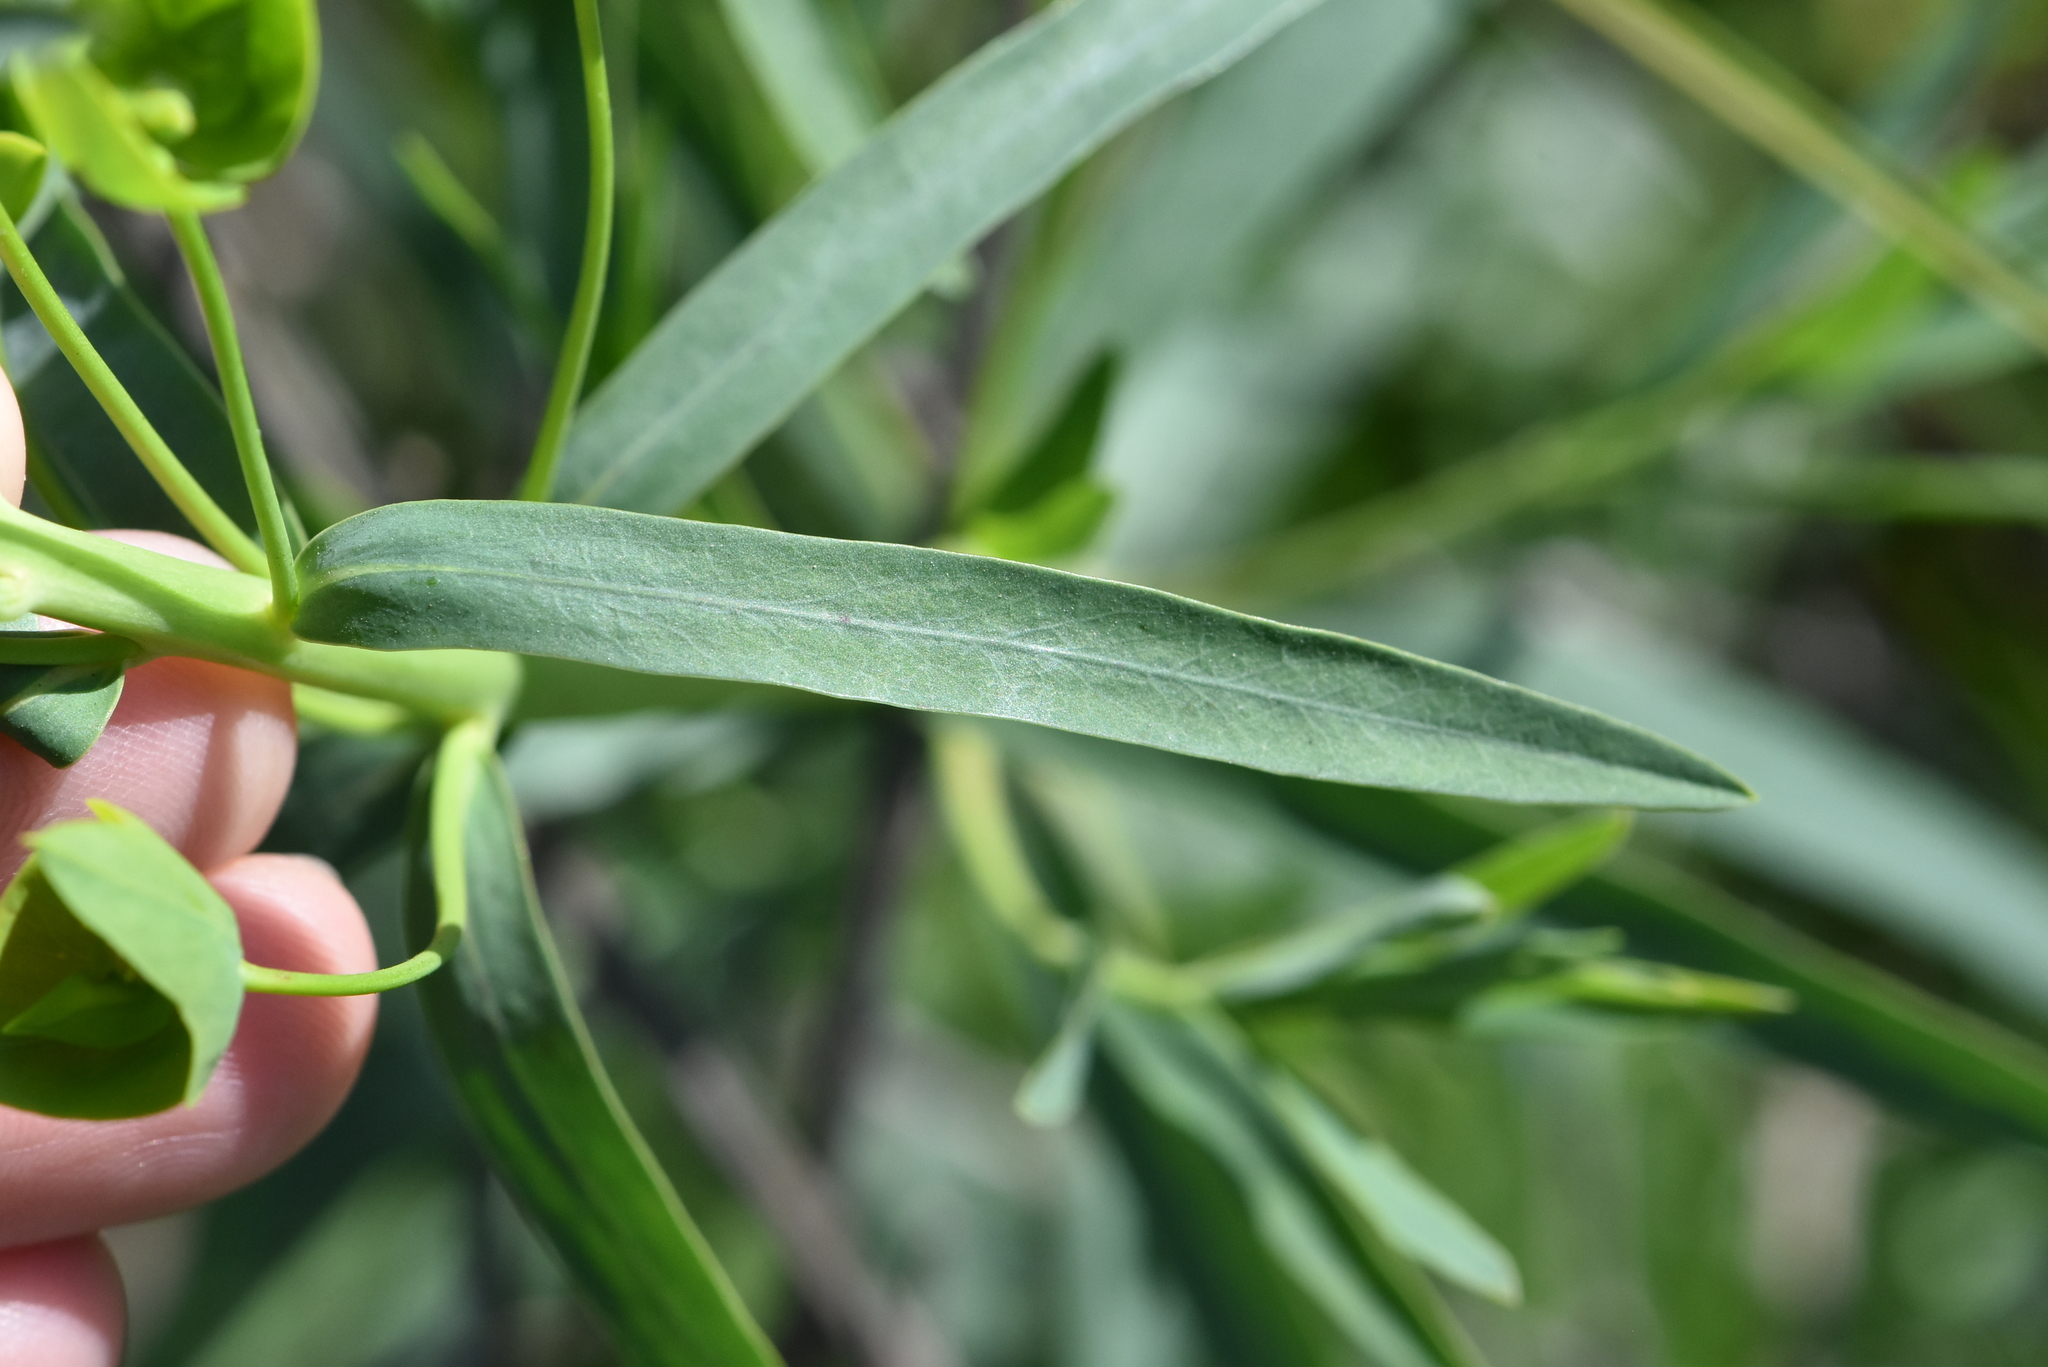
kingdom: Plantae
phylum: Tracheophyta
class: Magnoliopsida
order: Malpighiales
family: Euphorbiaceae
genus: Euphorbia
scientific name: Euphorbia virgata
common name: Leafy spurge
